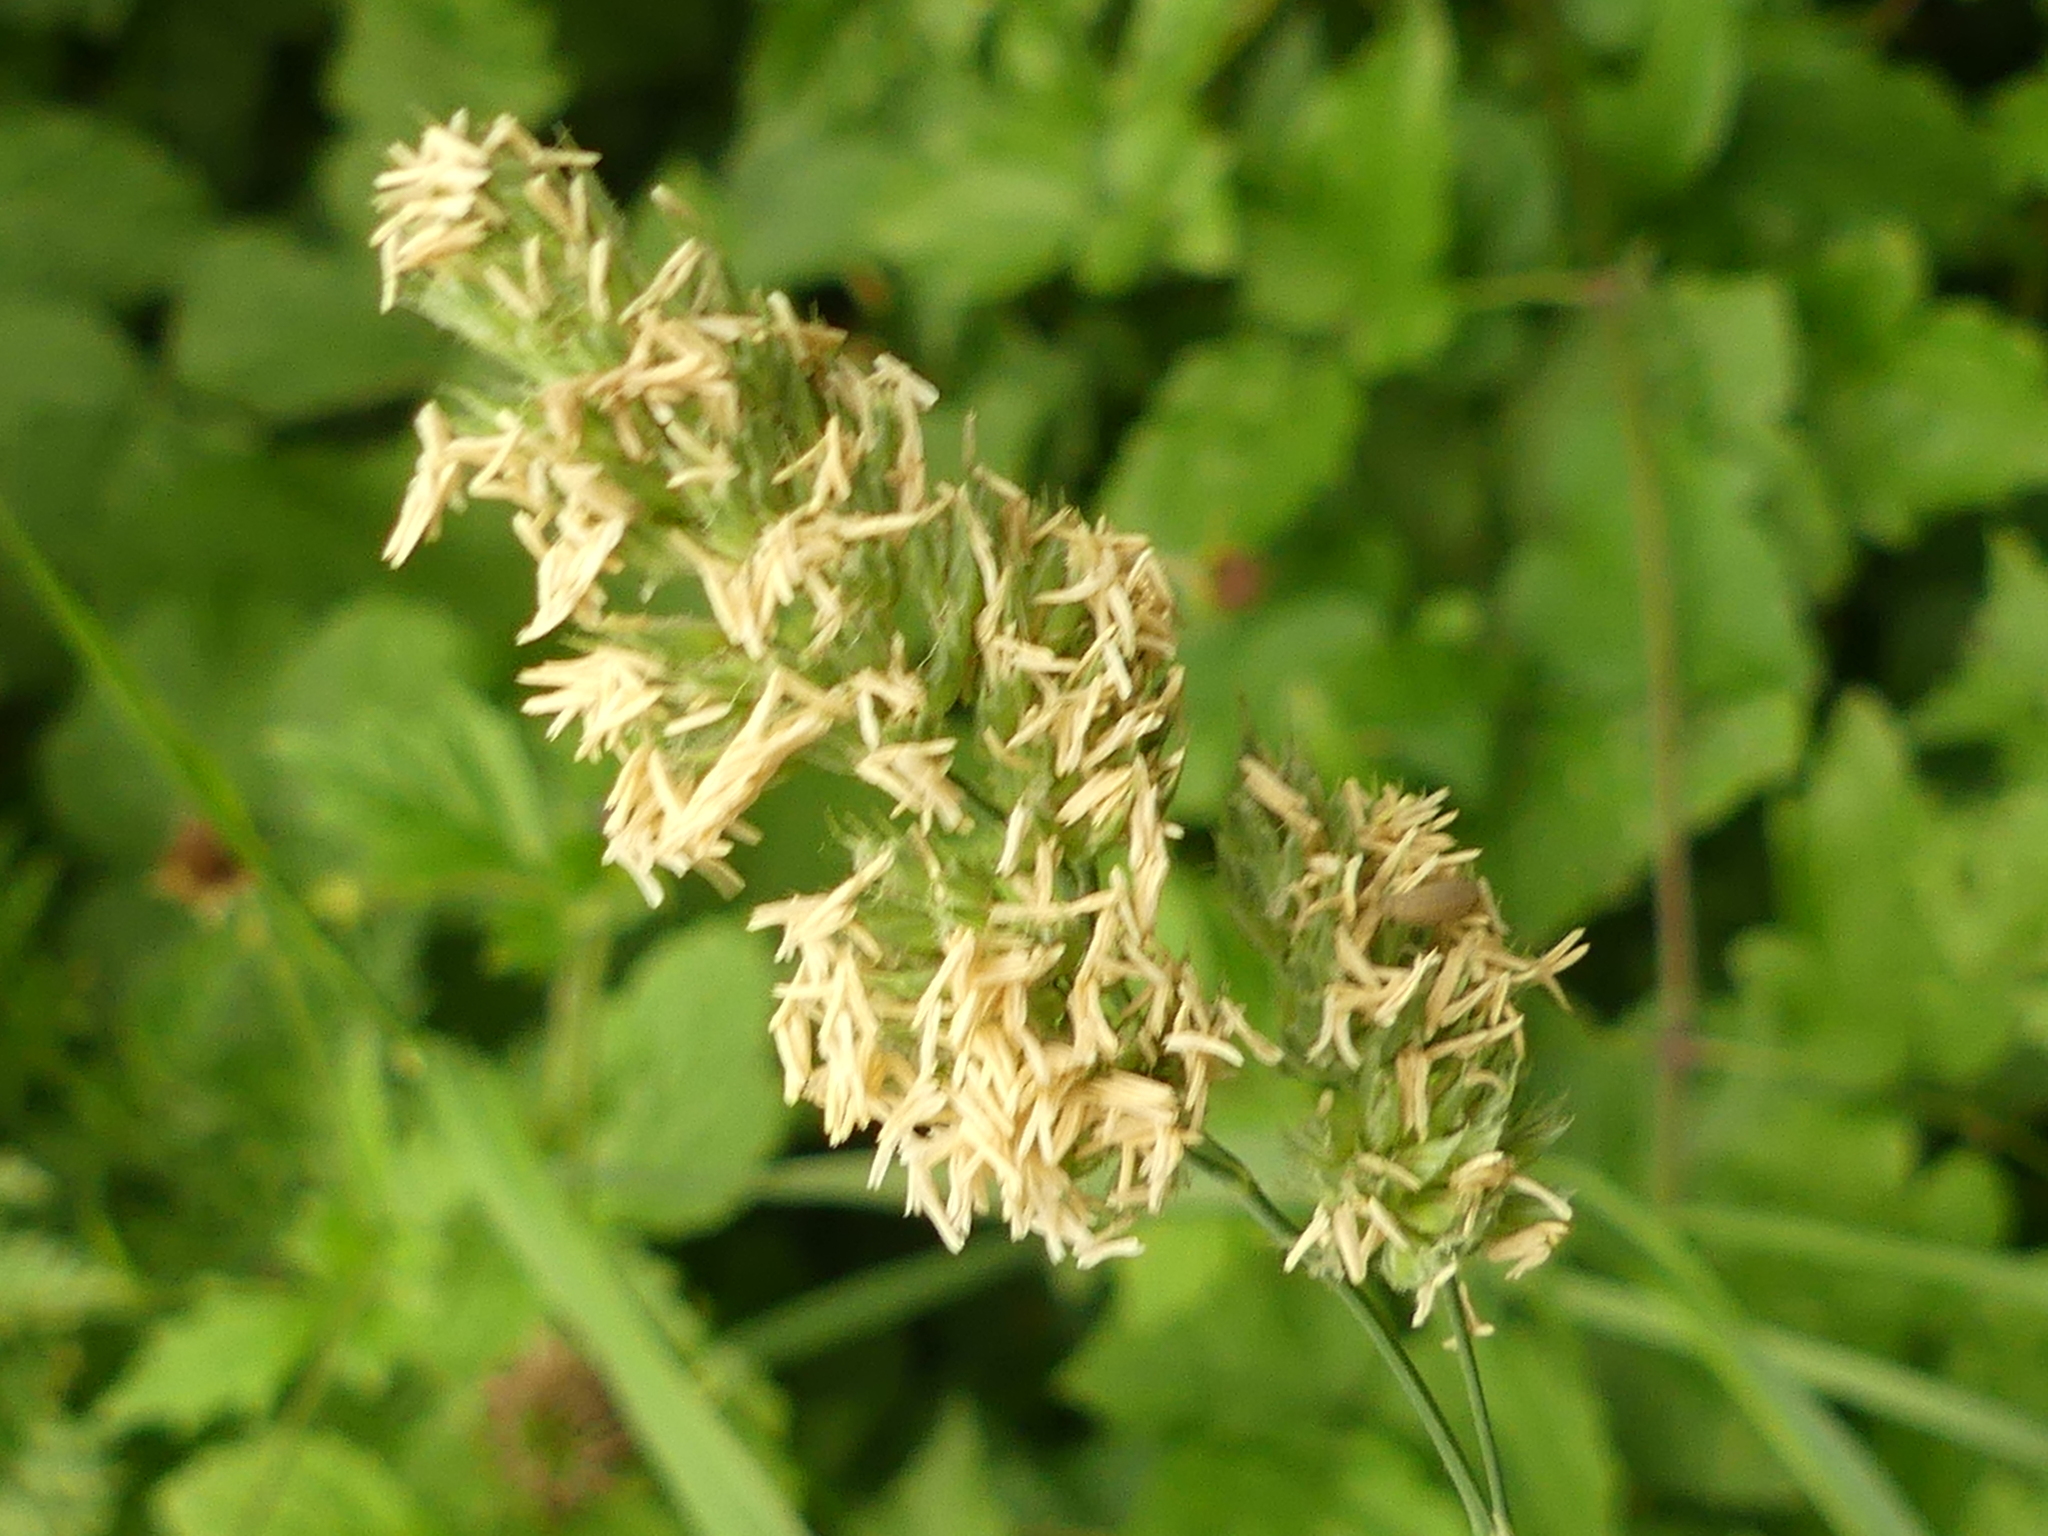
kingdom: Plantae
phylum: Tracheophyta
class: Liliopsida
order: Poales
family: Poaceae
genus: Dactylis
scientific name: Dactylis glomerata
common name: Orchardgrass
